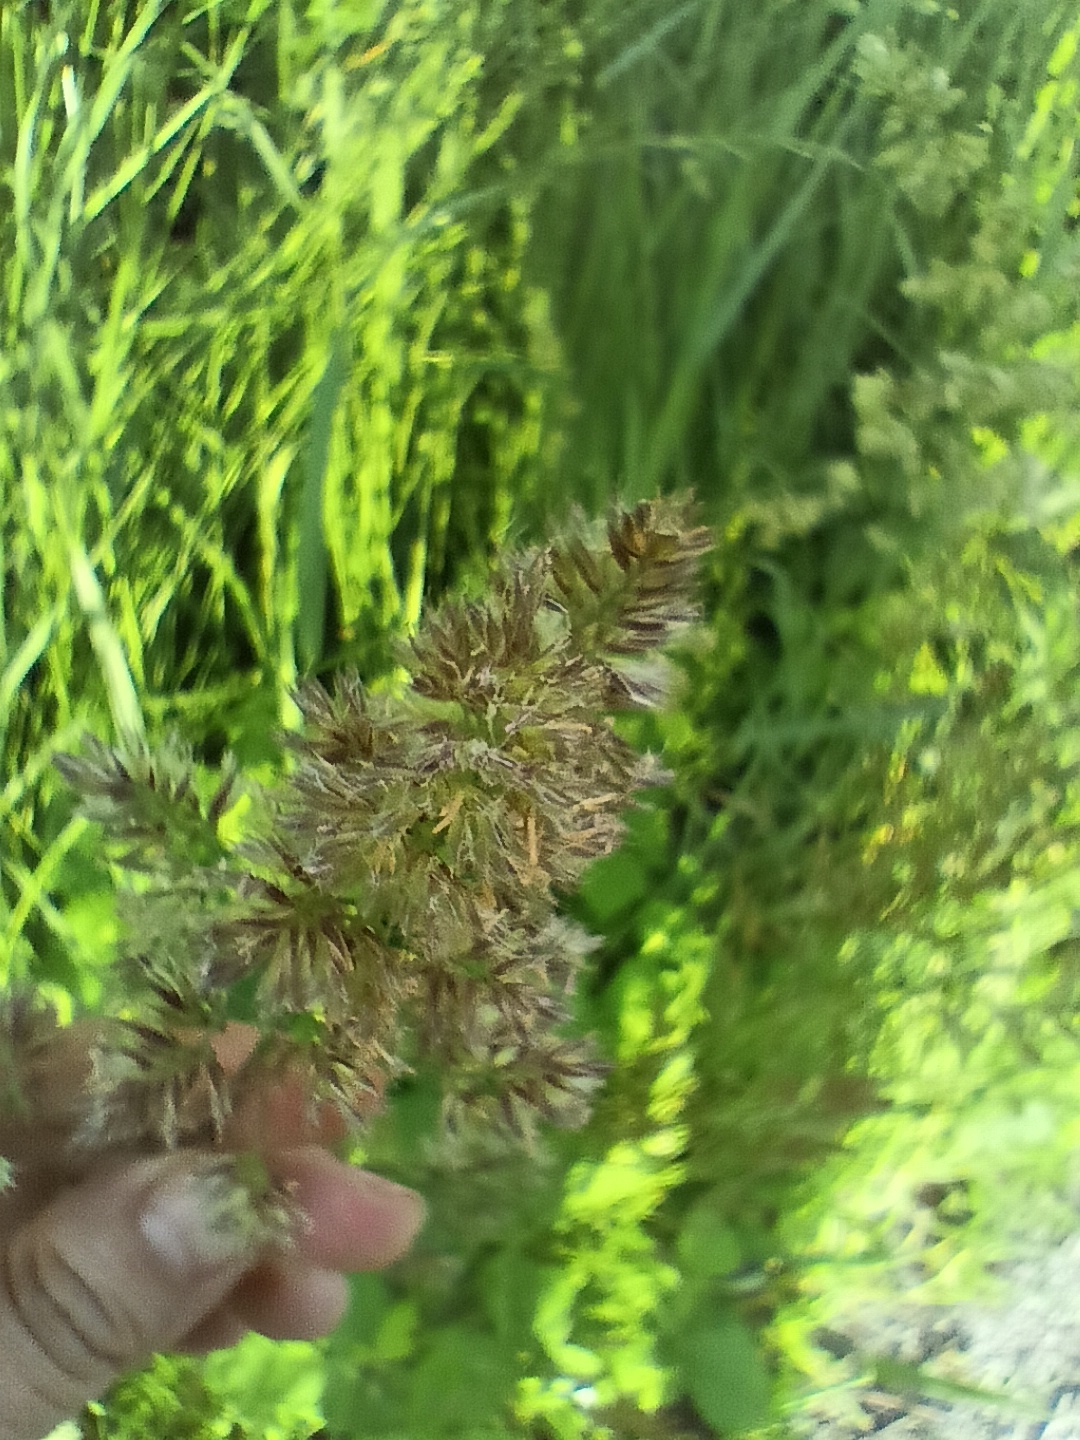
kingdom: Plantae
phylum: Tracheophyta
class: Liliopsida
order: Poales
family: Poaceae
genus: Dactylis
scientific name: Dactylis glomerata
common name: Orchardgrass
